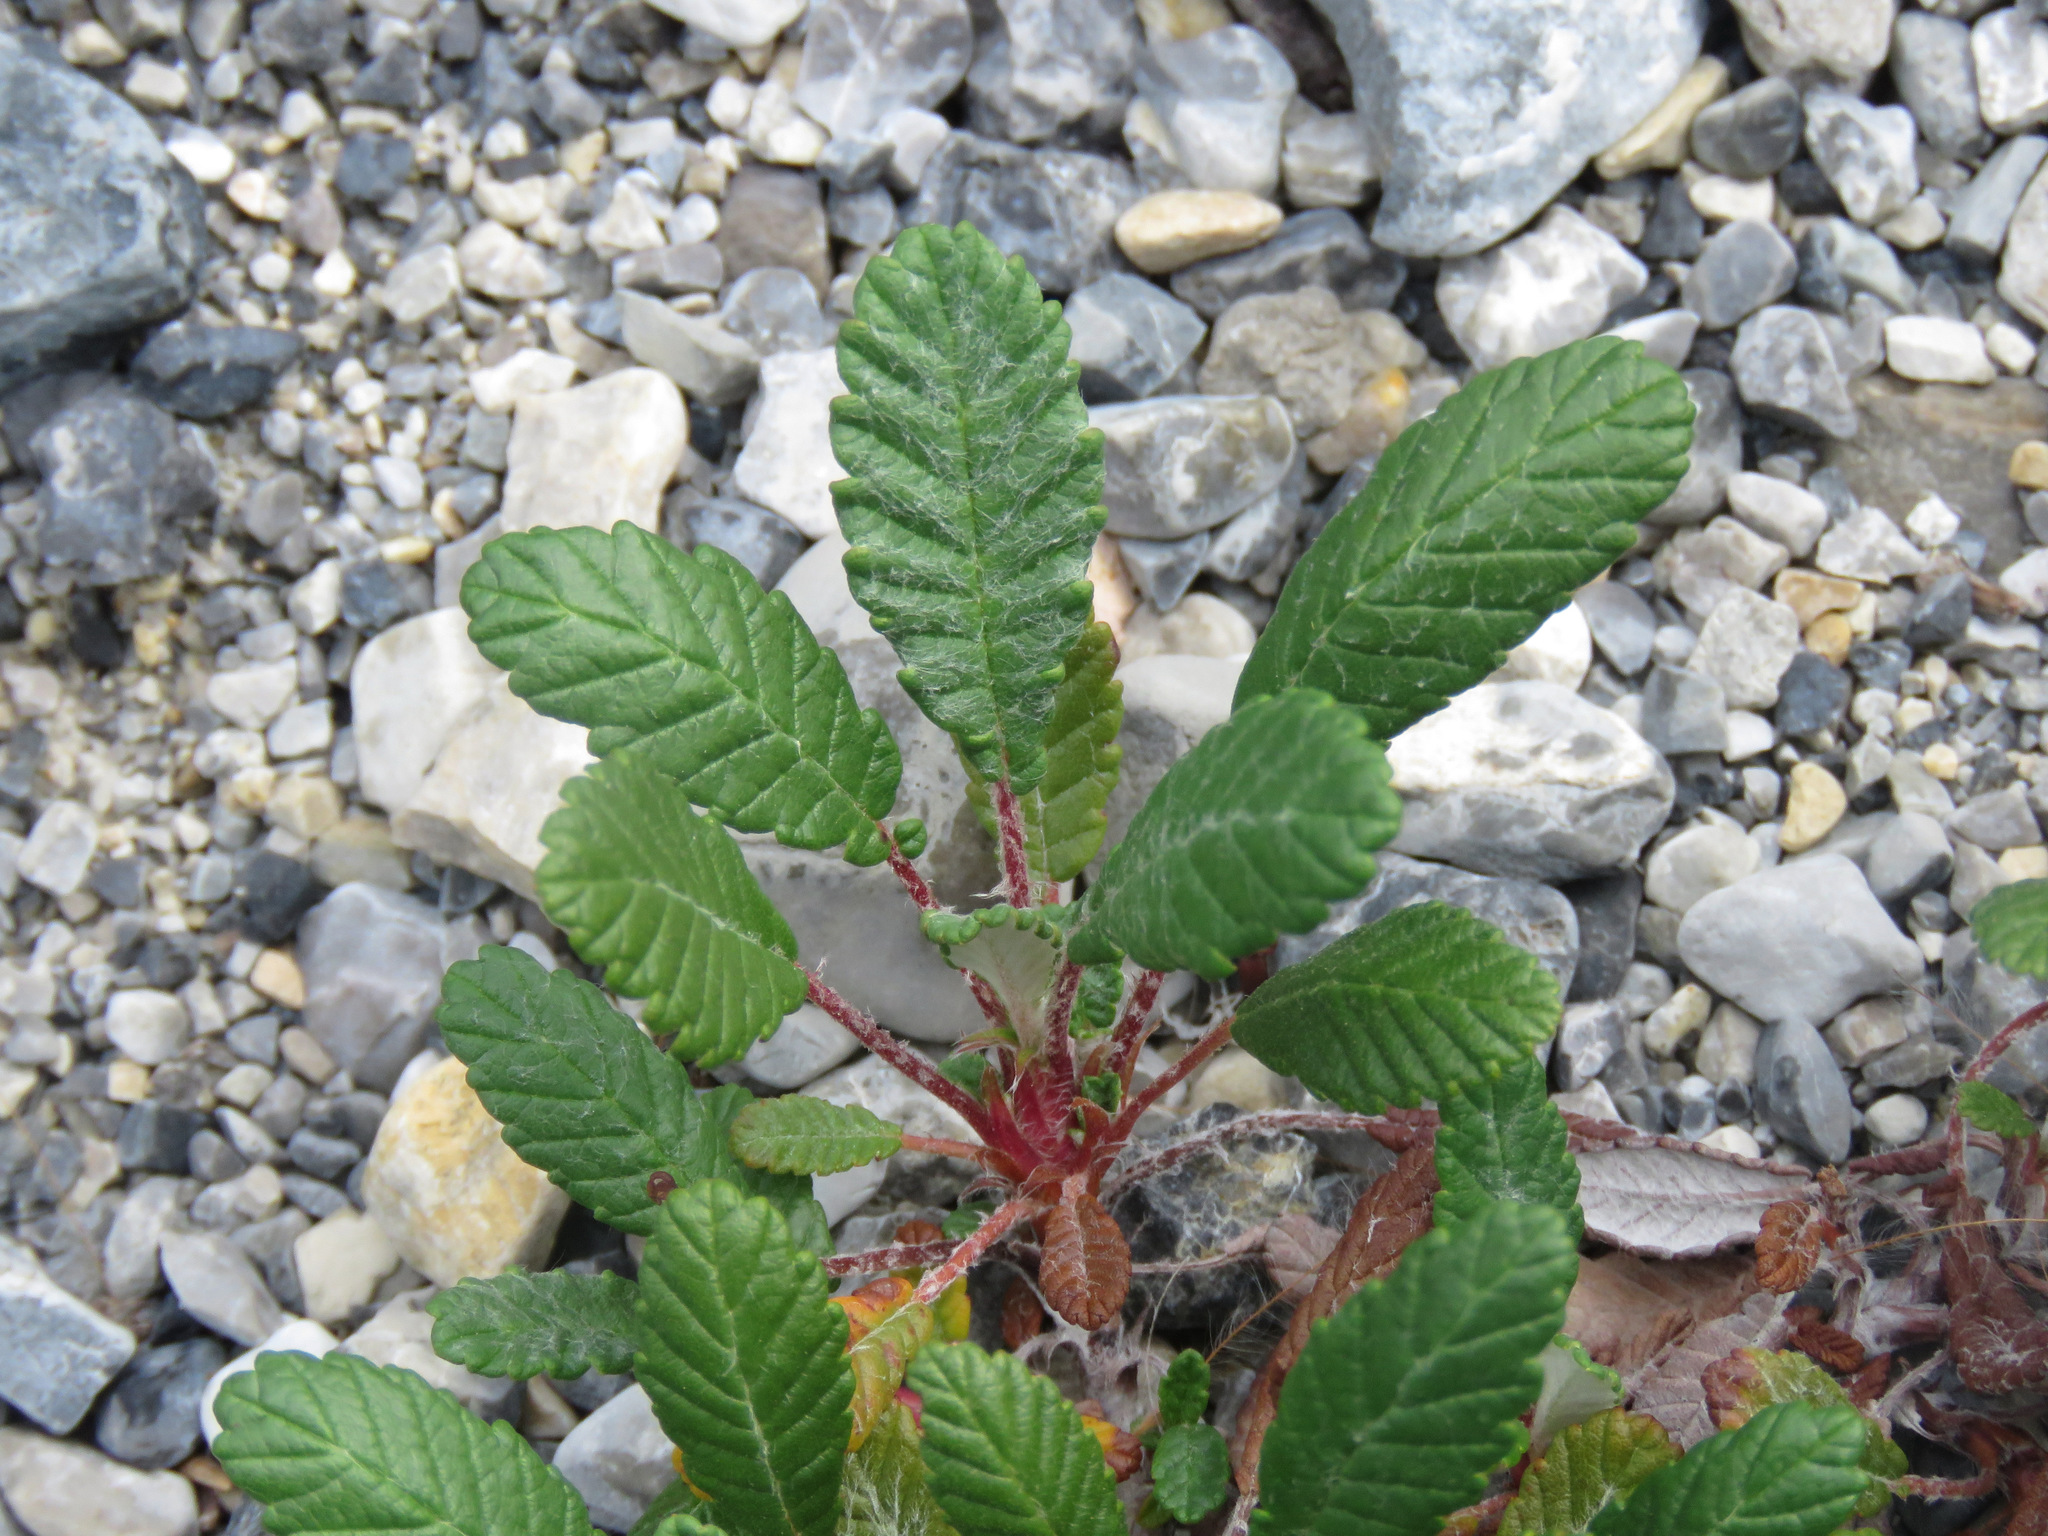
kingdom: Plantae
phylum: Tracheophyta
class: Magnoliopsida
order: Rosales
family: Rosaceae
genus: Dryas
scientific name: Dryas drummondii
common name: Drummond's dryad
